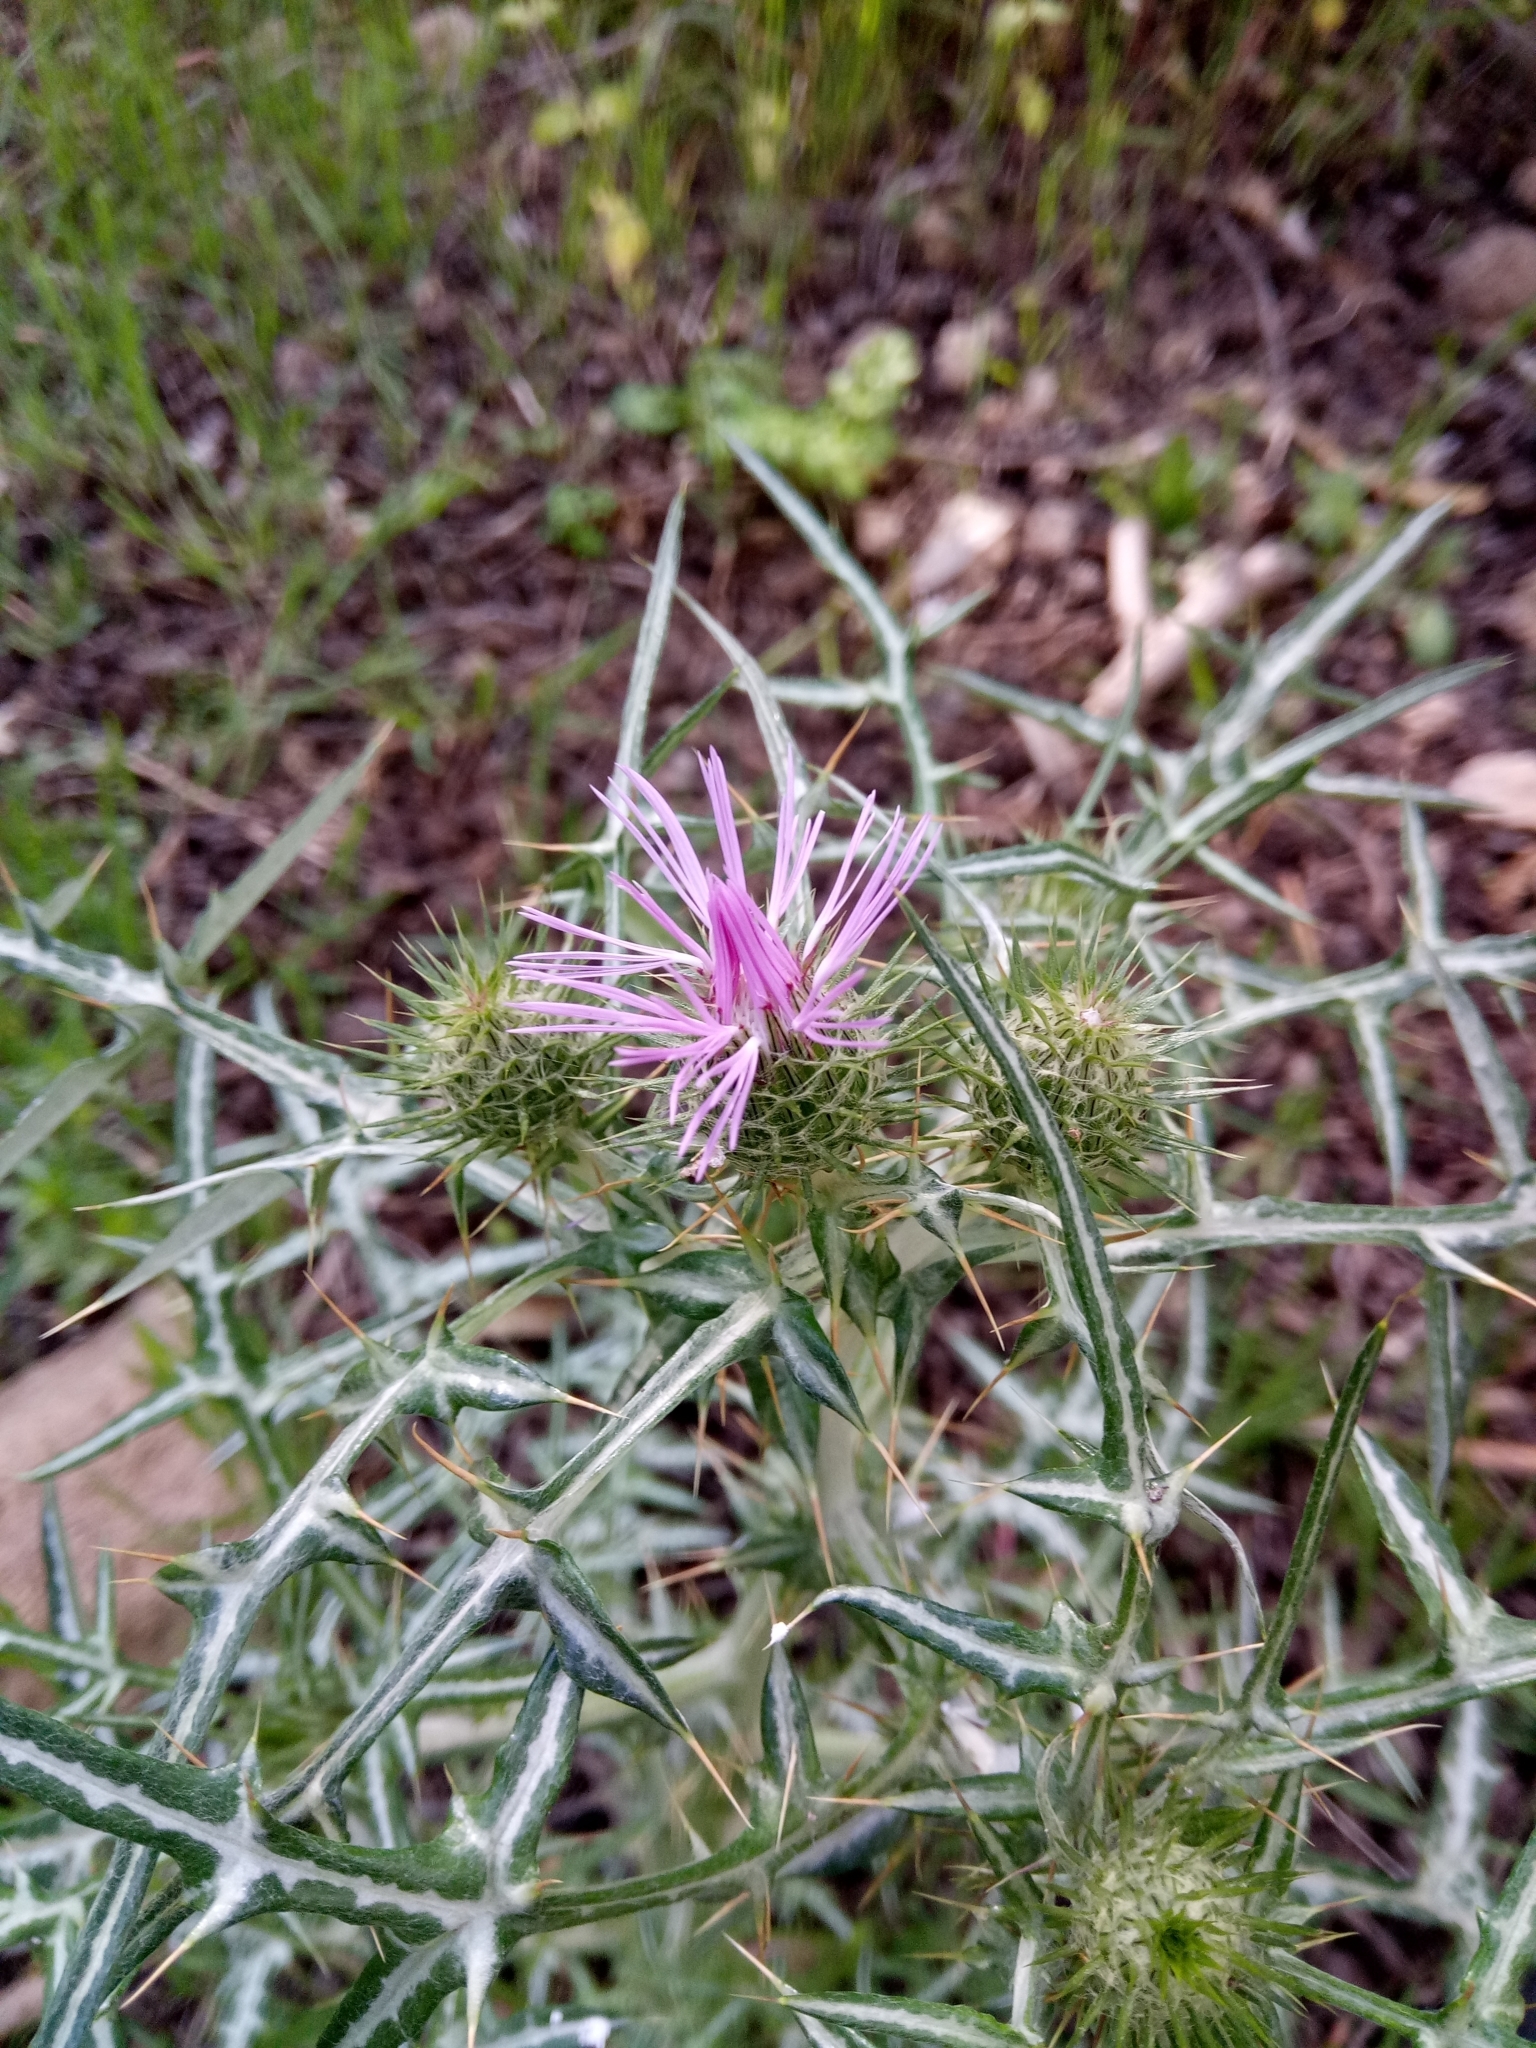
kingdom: Plantae
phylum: Tracheophyta
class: Magnoliopsida
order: Asterales
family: Asteraceae
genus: Galactites
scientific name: Galactites tomentosa
